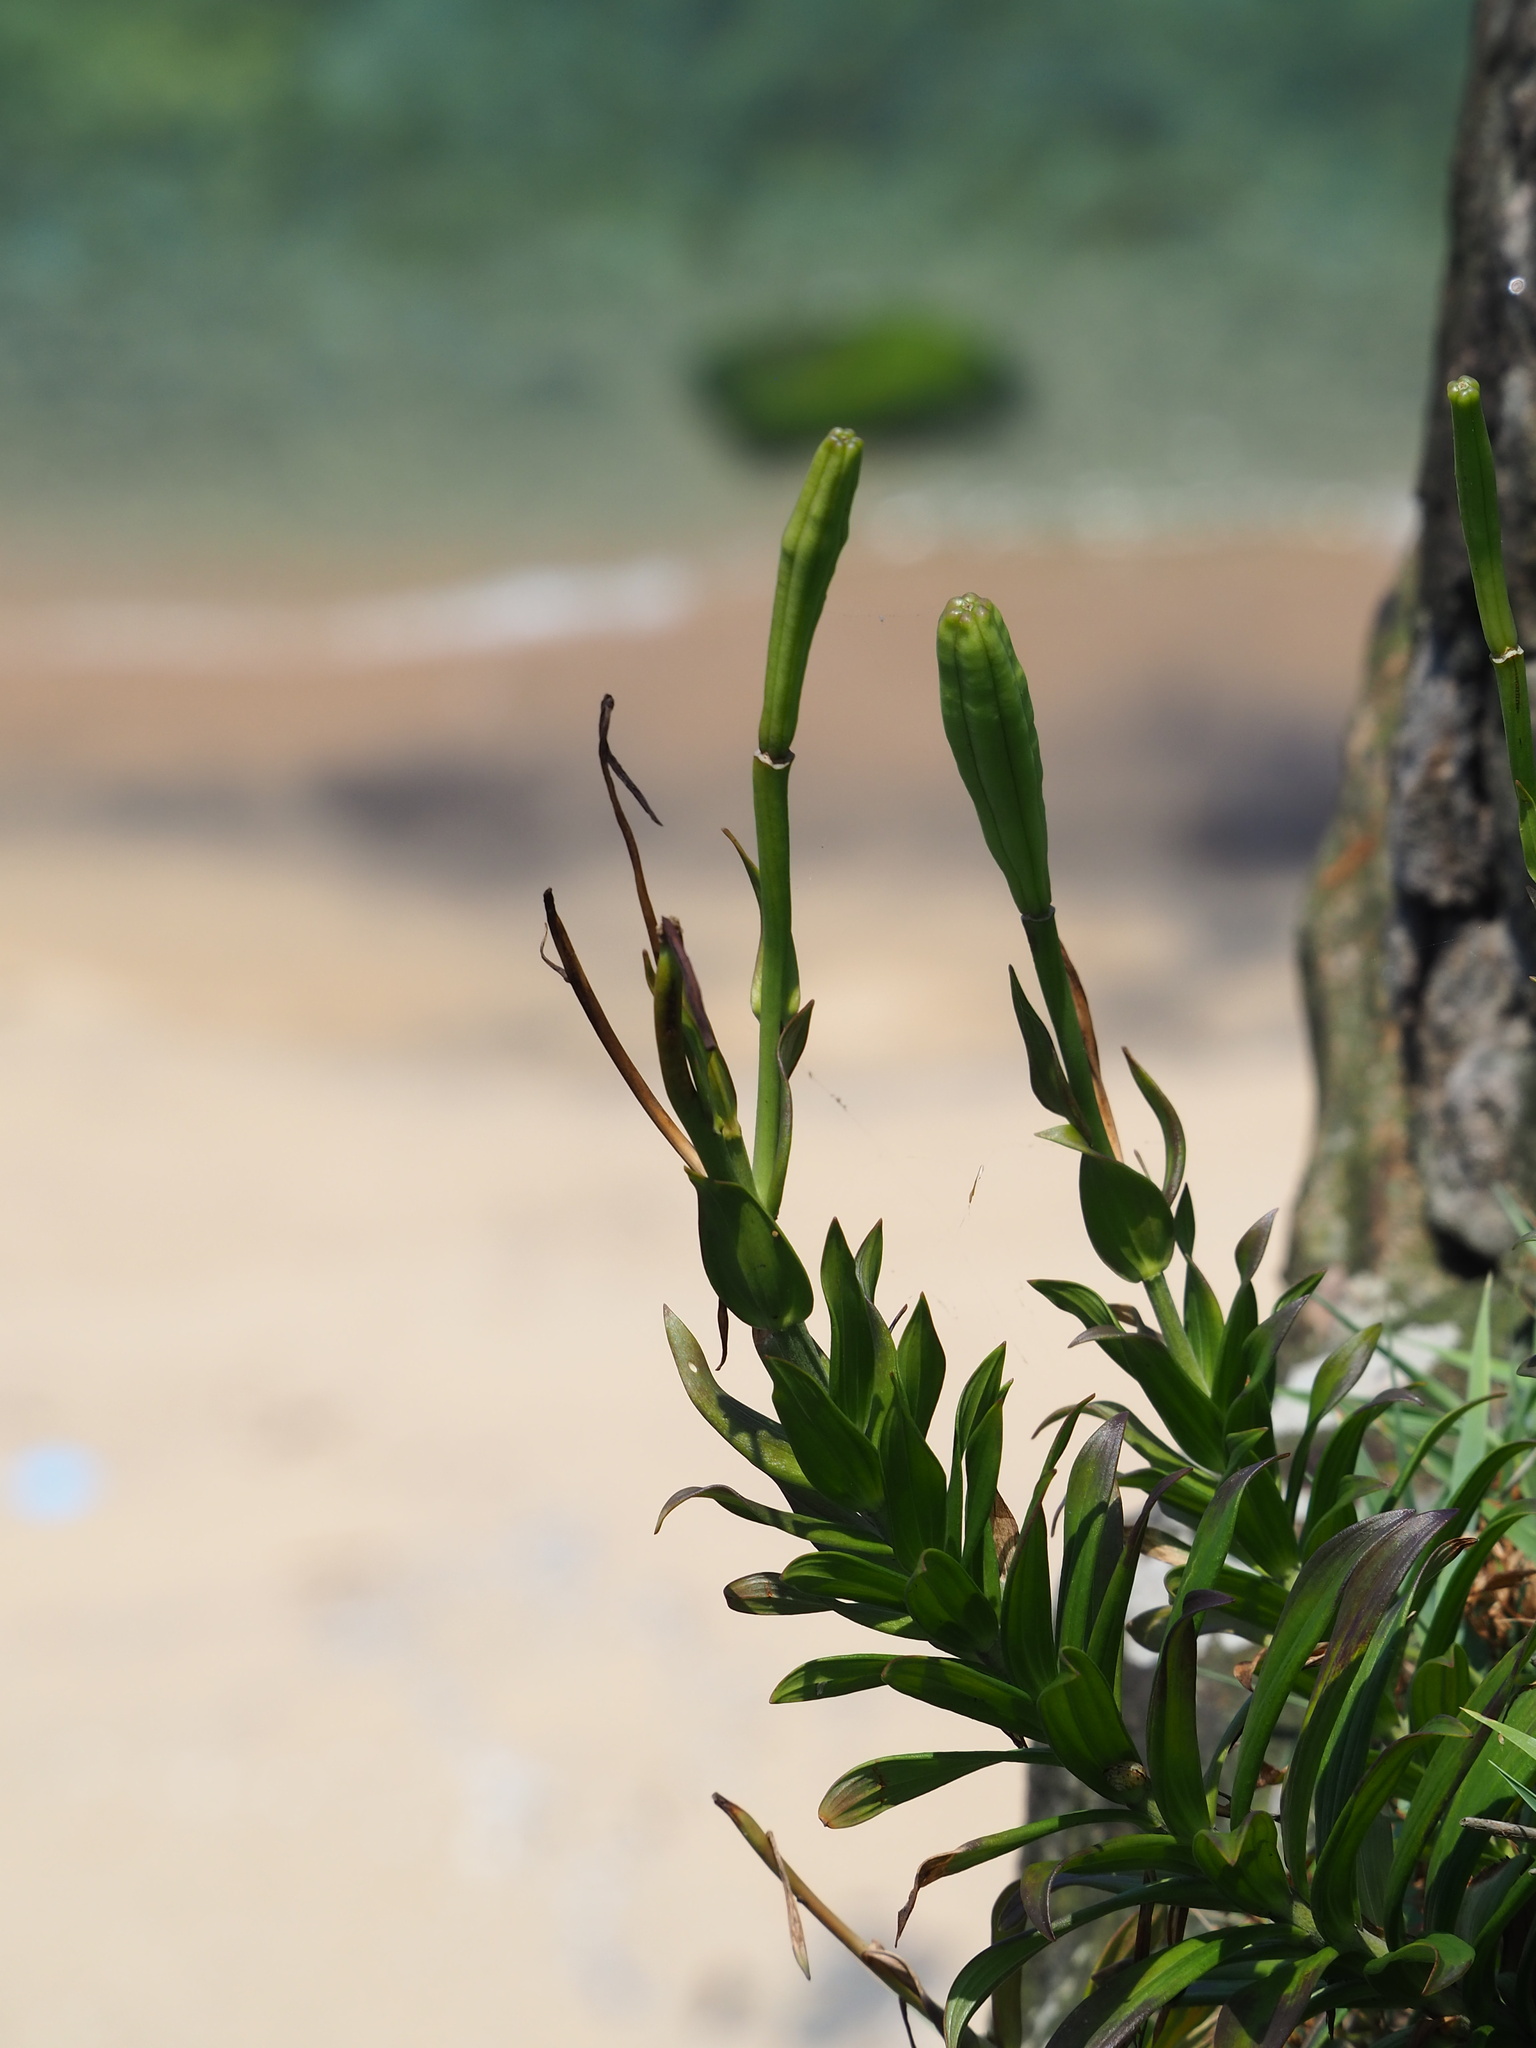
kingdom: Plantae
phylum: Tracheophyta
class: Liliopsida
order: Liliales
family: Liliaceae
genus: Lilium
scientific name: Lilium longiflorum
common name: Easter lily
